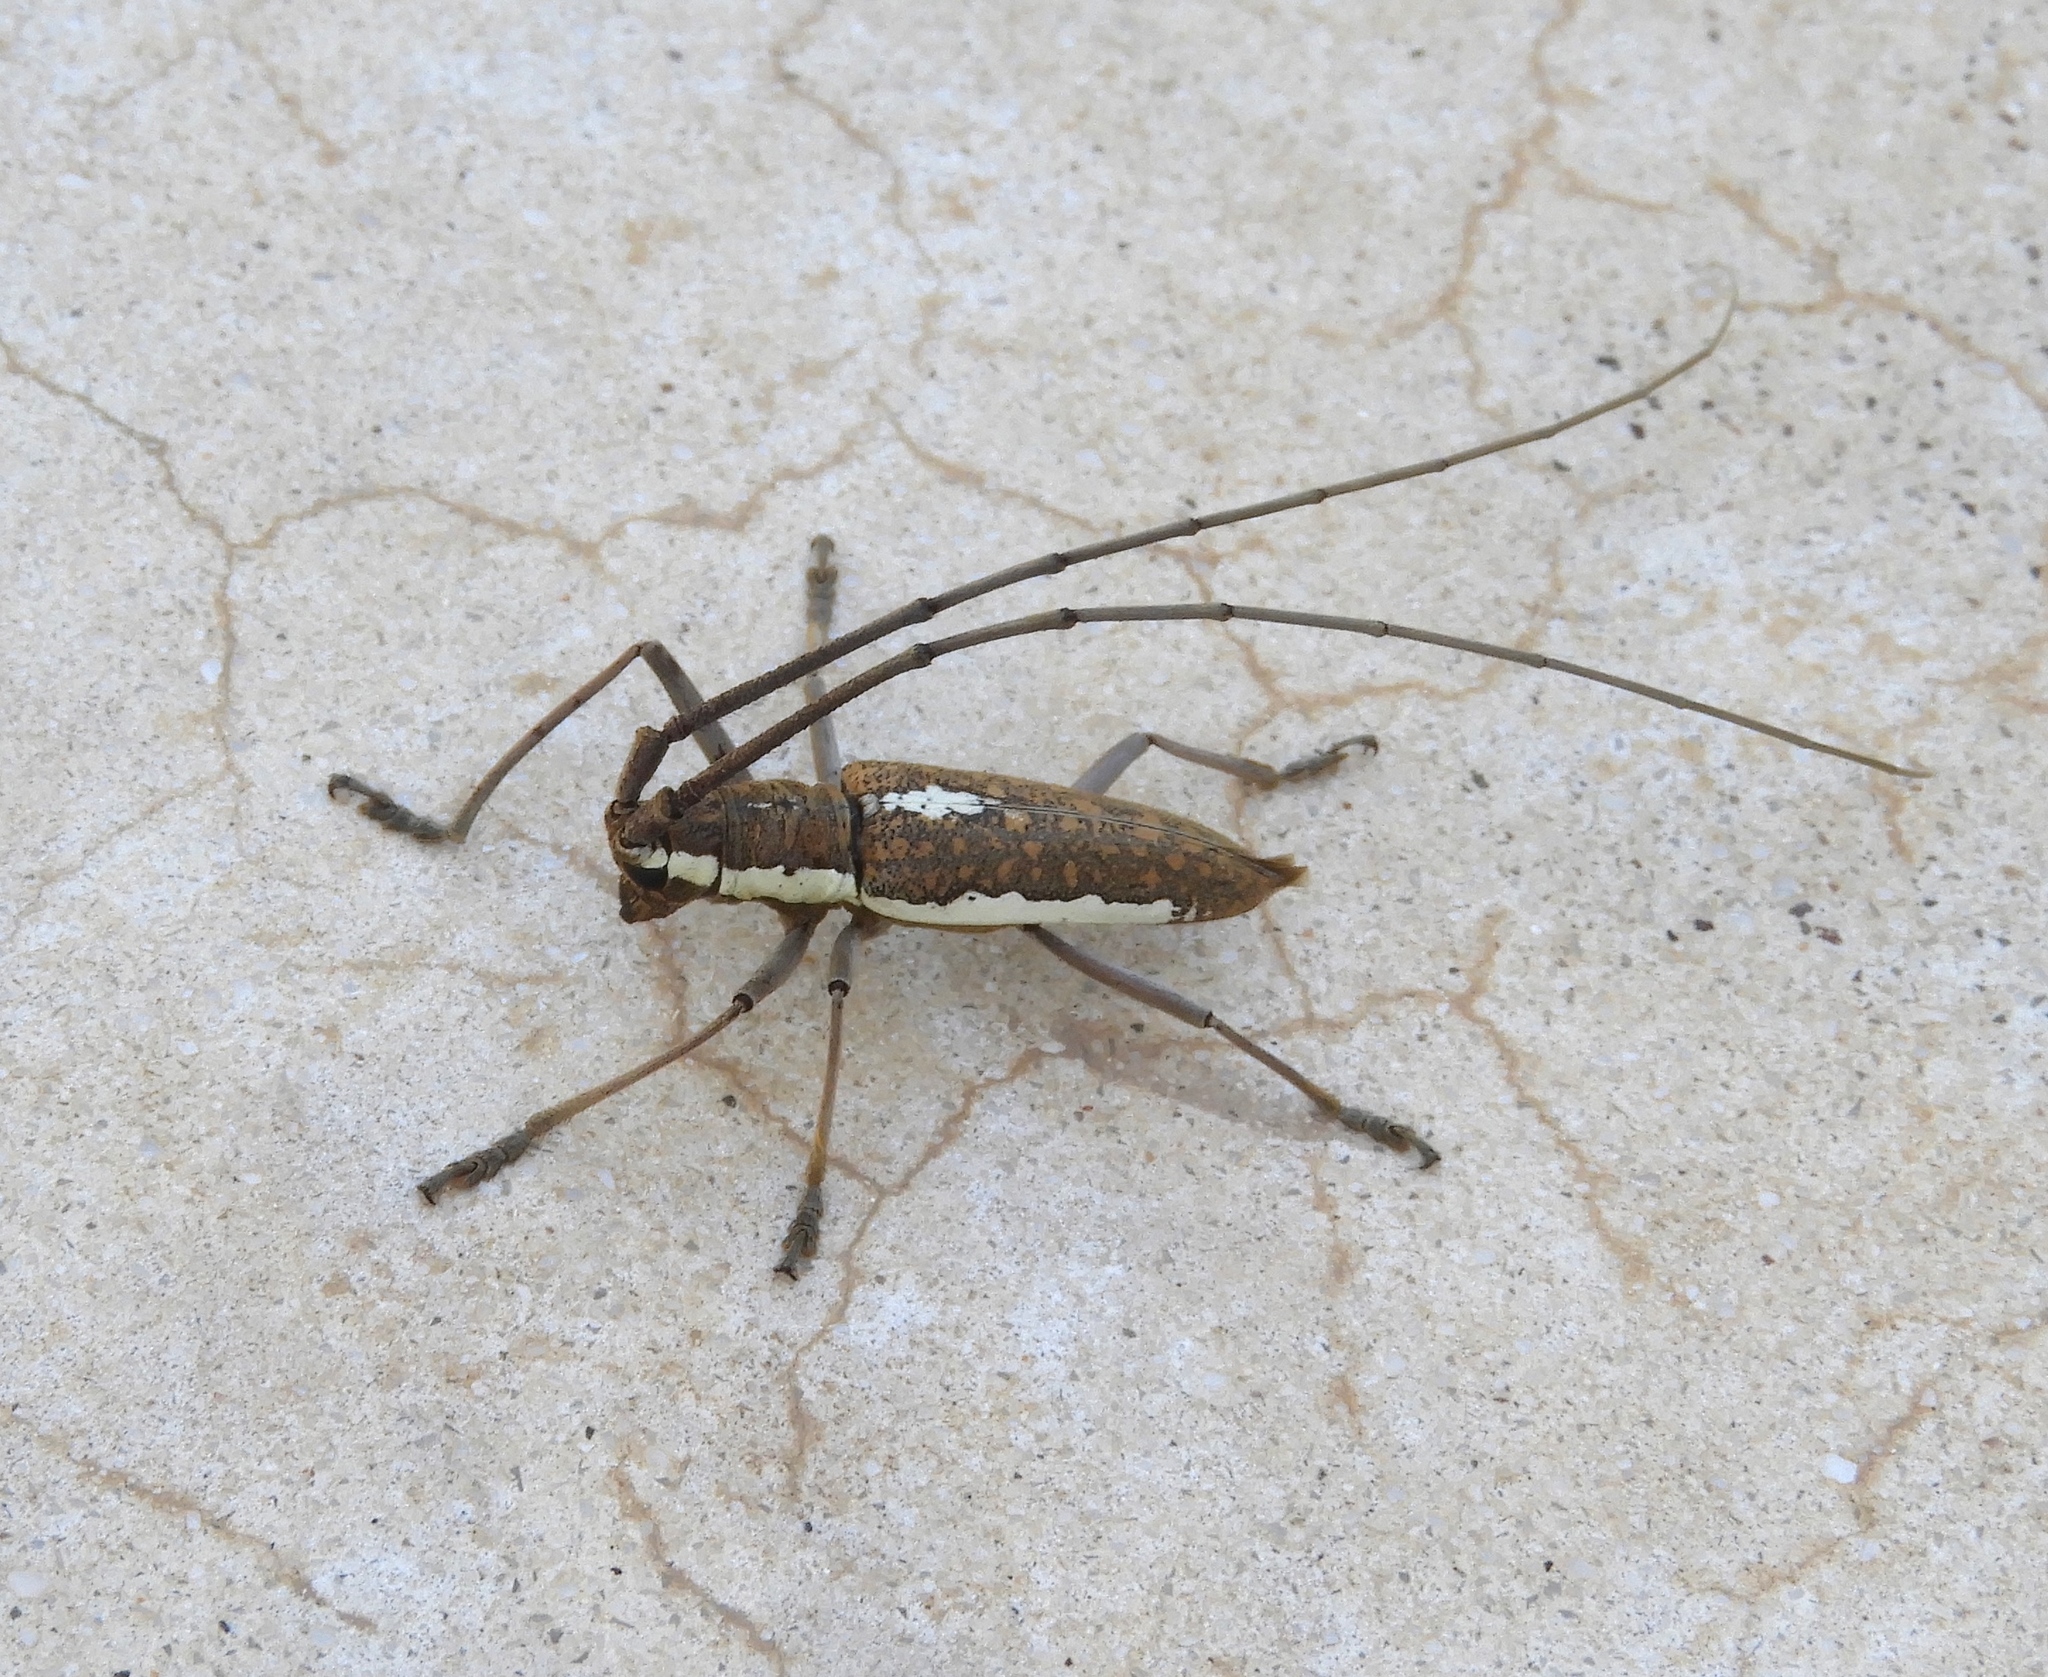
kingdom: Animalia
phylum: Arthropoda
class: Insecta
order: Coleoptera
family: Cerambycidae
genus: Neoptychodes
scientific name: Neoptychodes trilineatus
